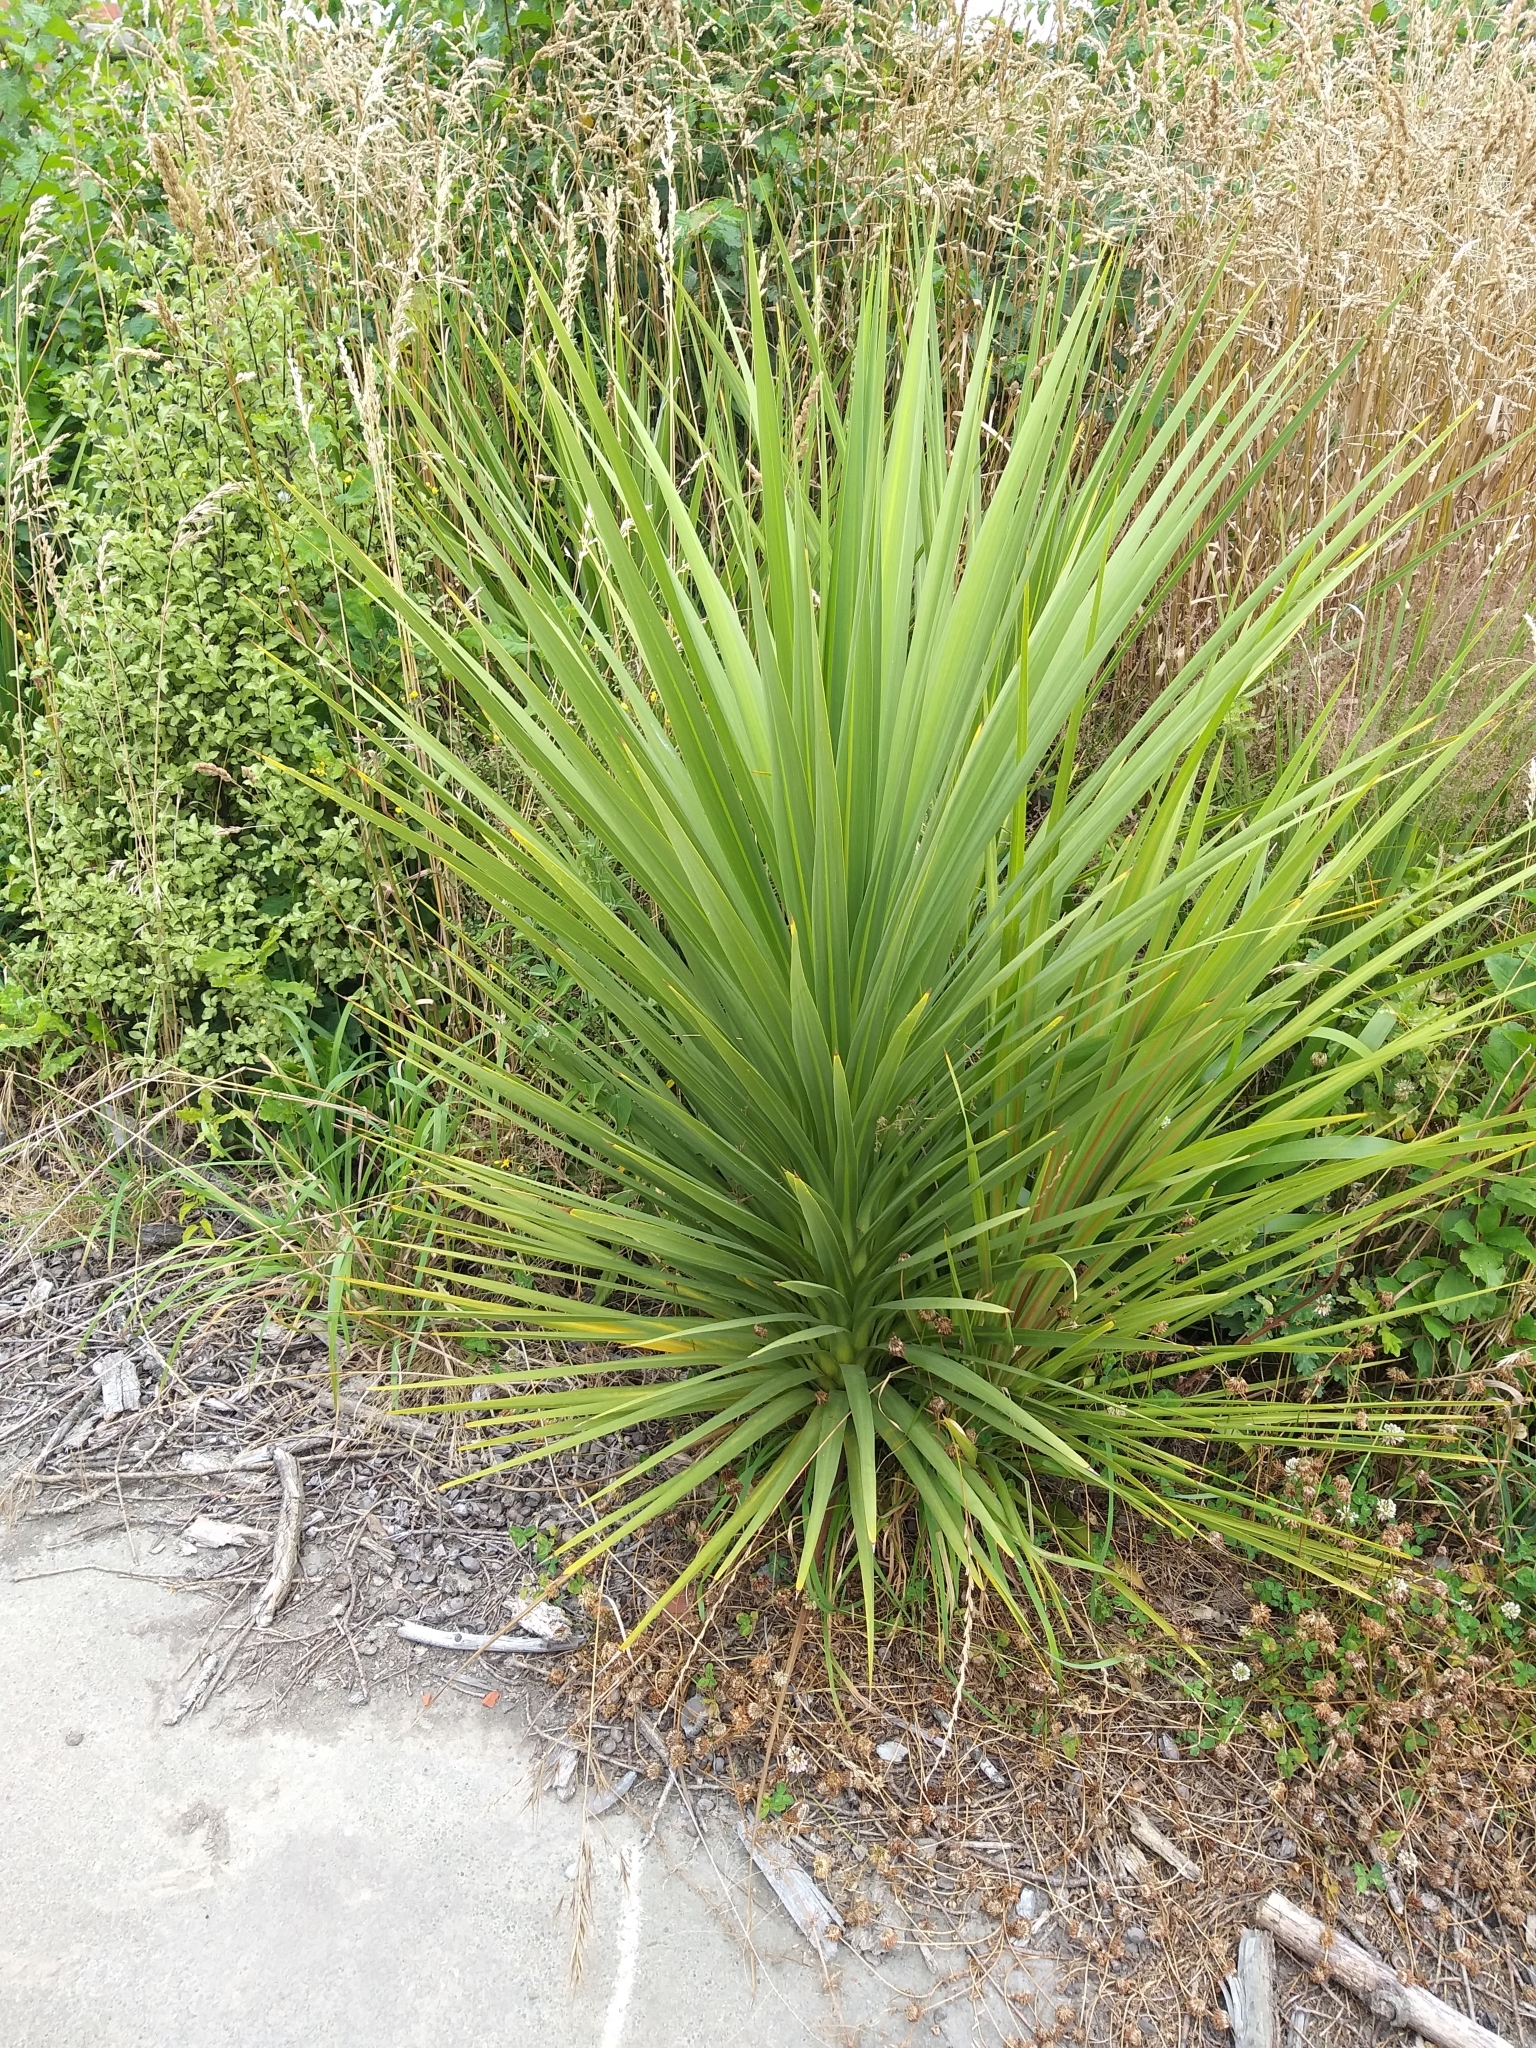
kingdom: Plantae
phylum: Tracheophyta
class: Liliopsida
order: Asparagales
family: Asparagaceae
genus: Cordyline
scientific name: Cordyline australis
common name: Cabbage-palm
